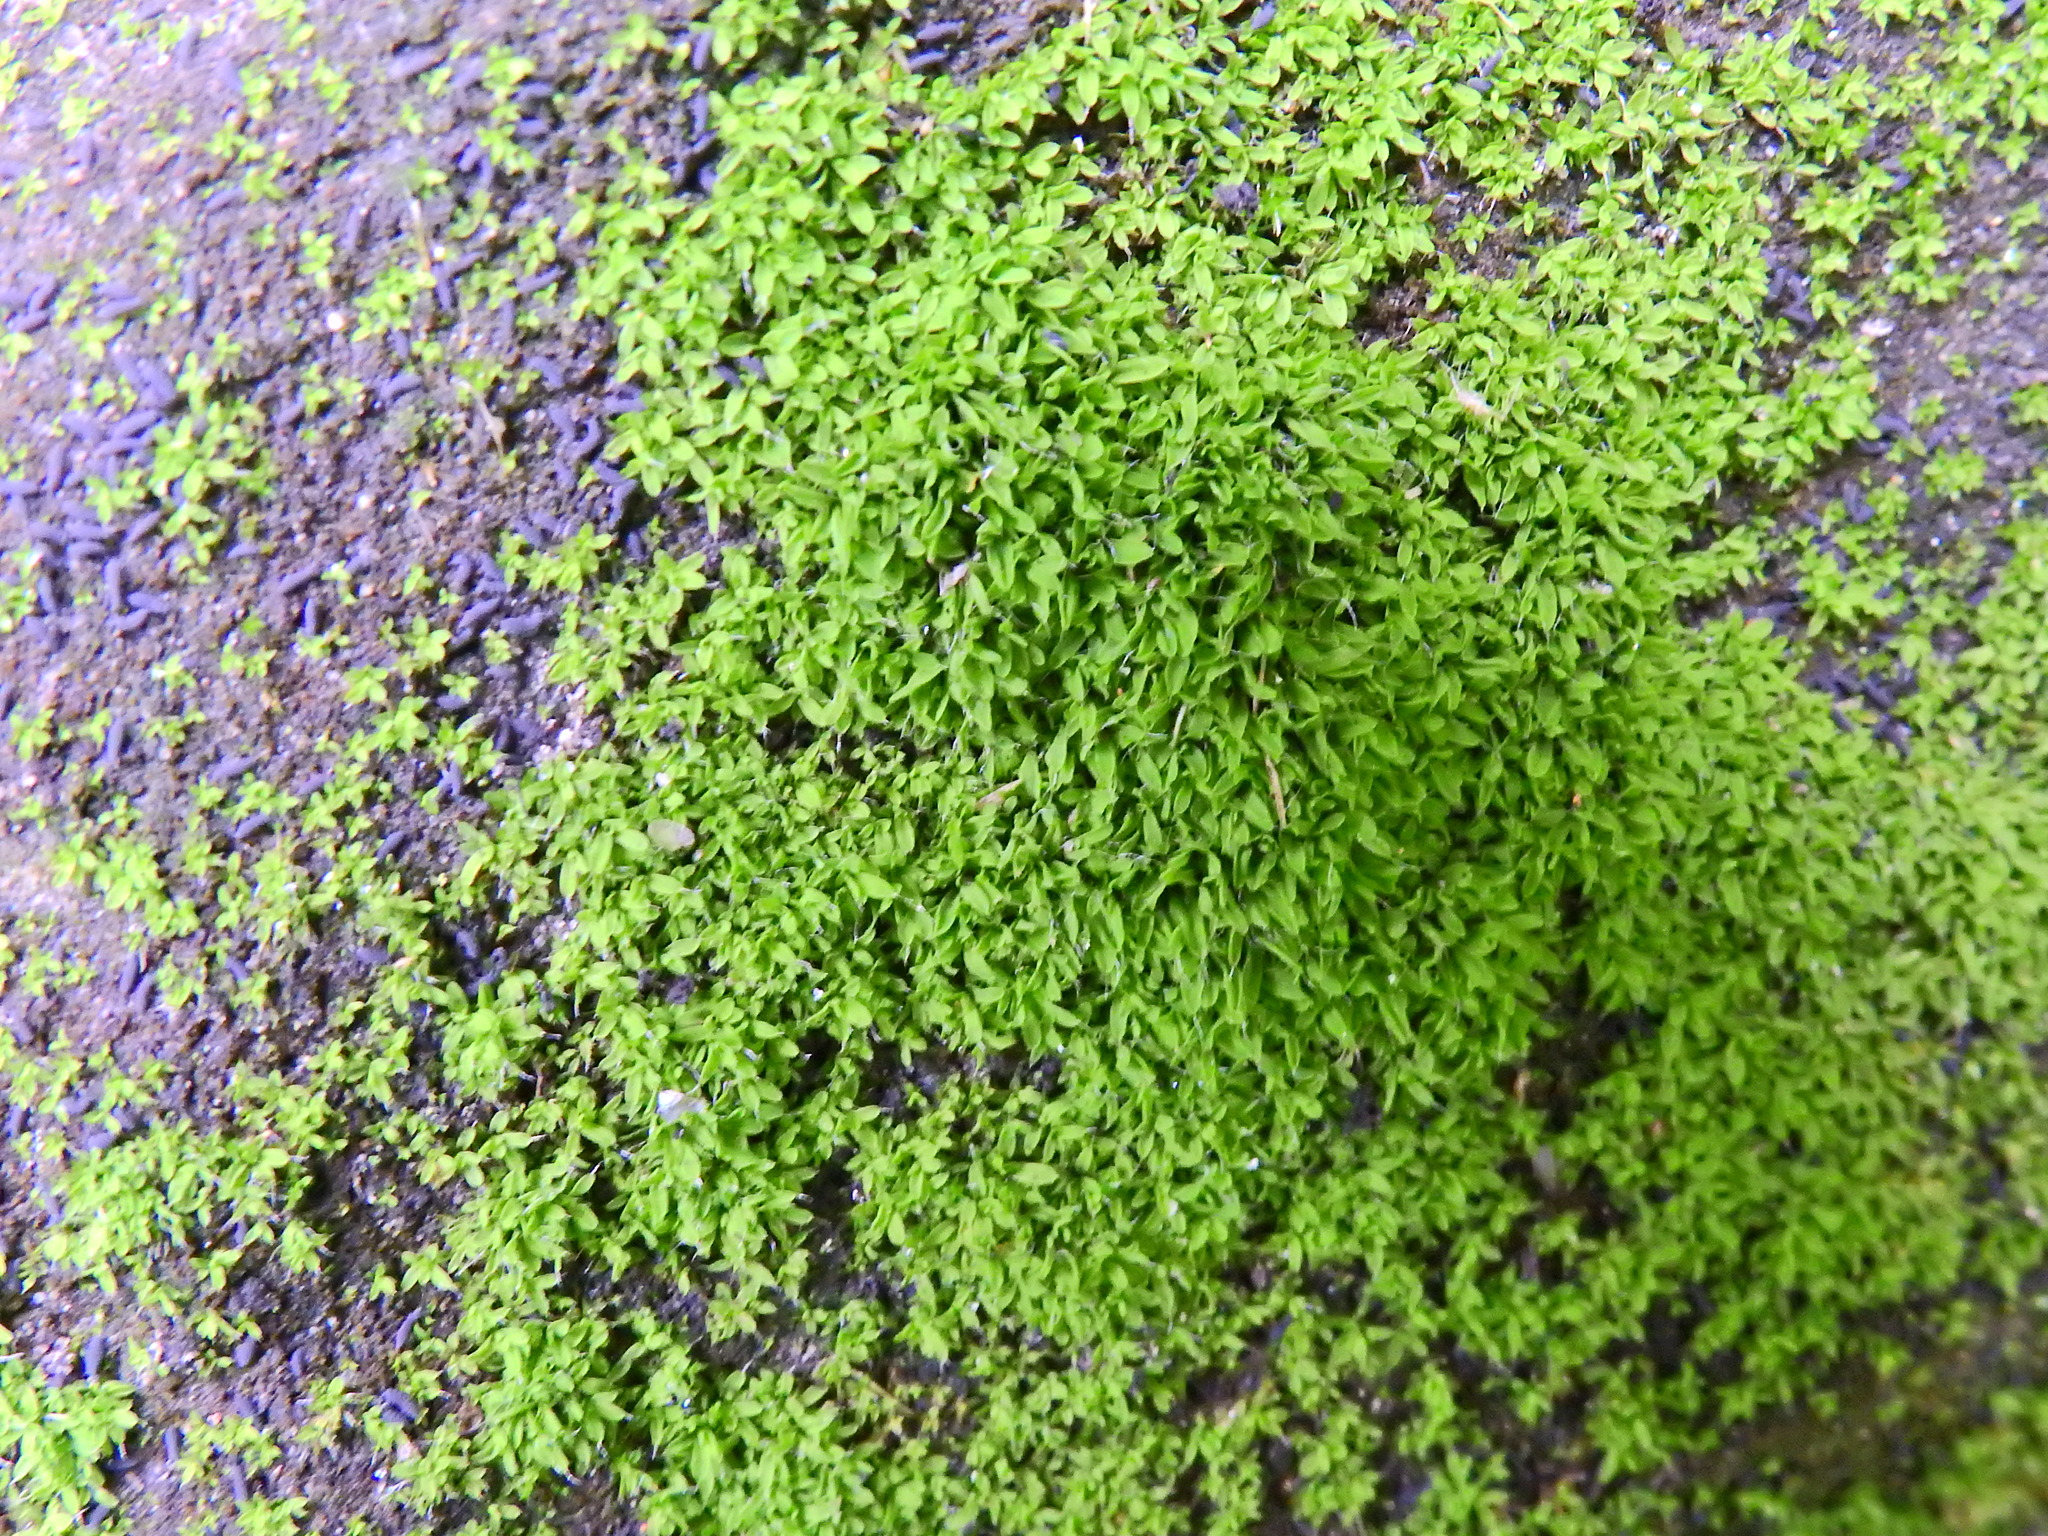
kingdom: Plantae
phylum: Bryophyta
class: Bryopsida
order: Pottiales
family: Pottiaceae
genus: Tortula
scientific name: Tortula muralis
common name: Wall screw-moss
